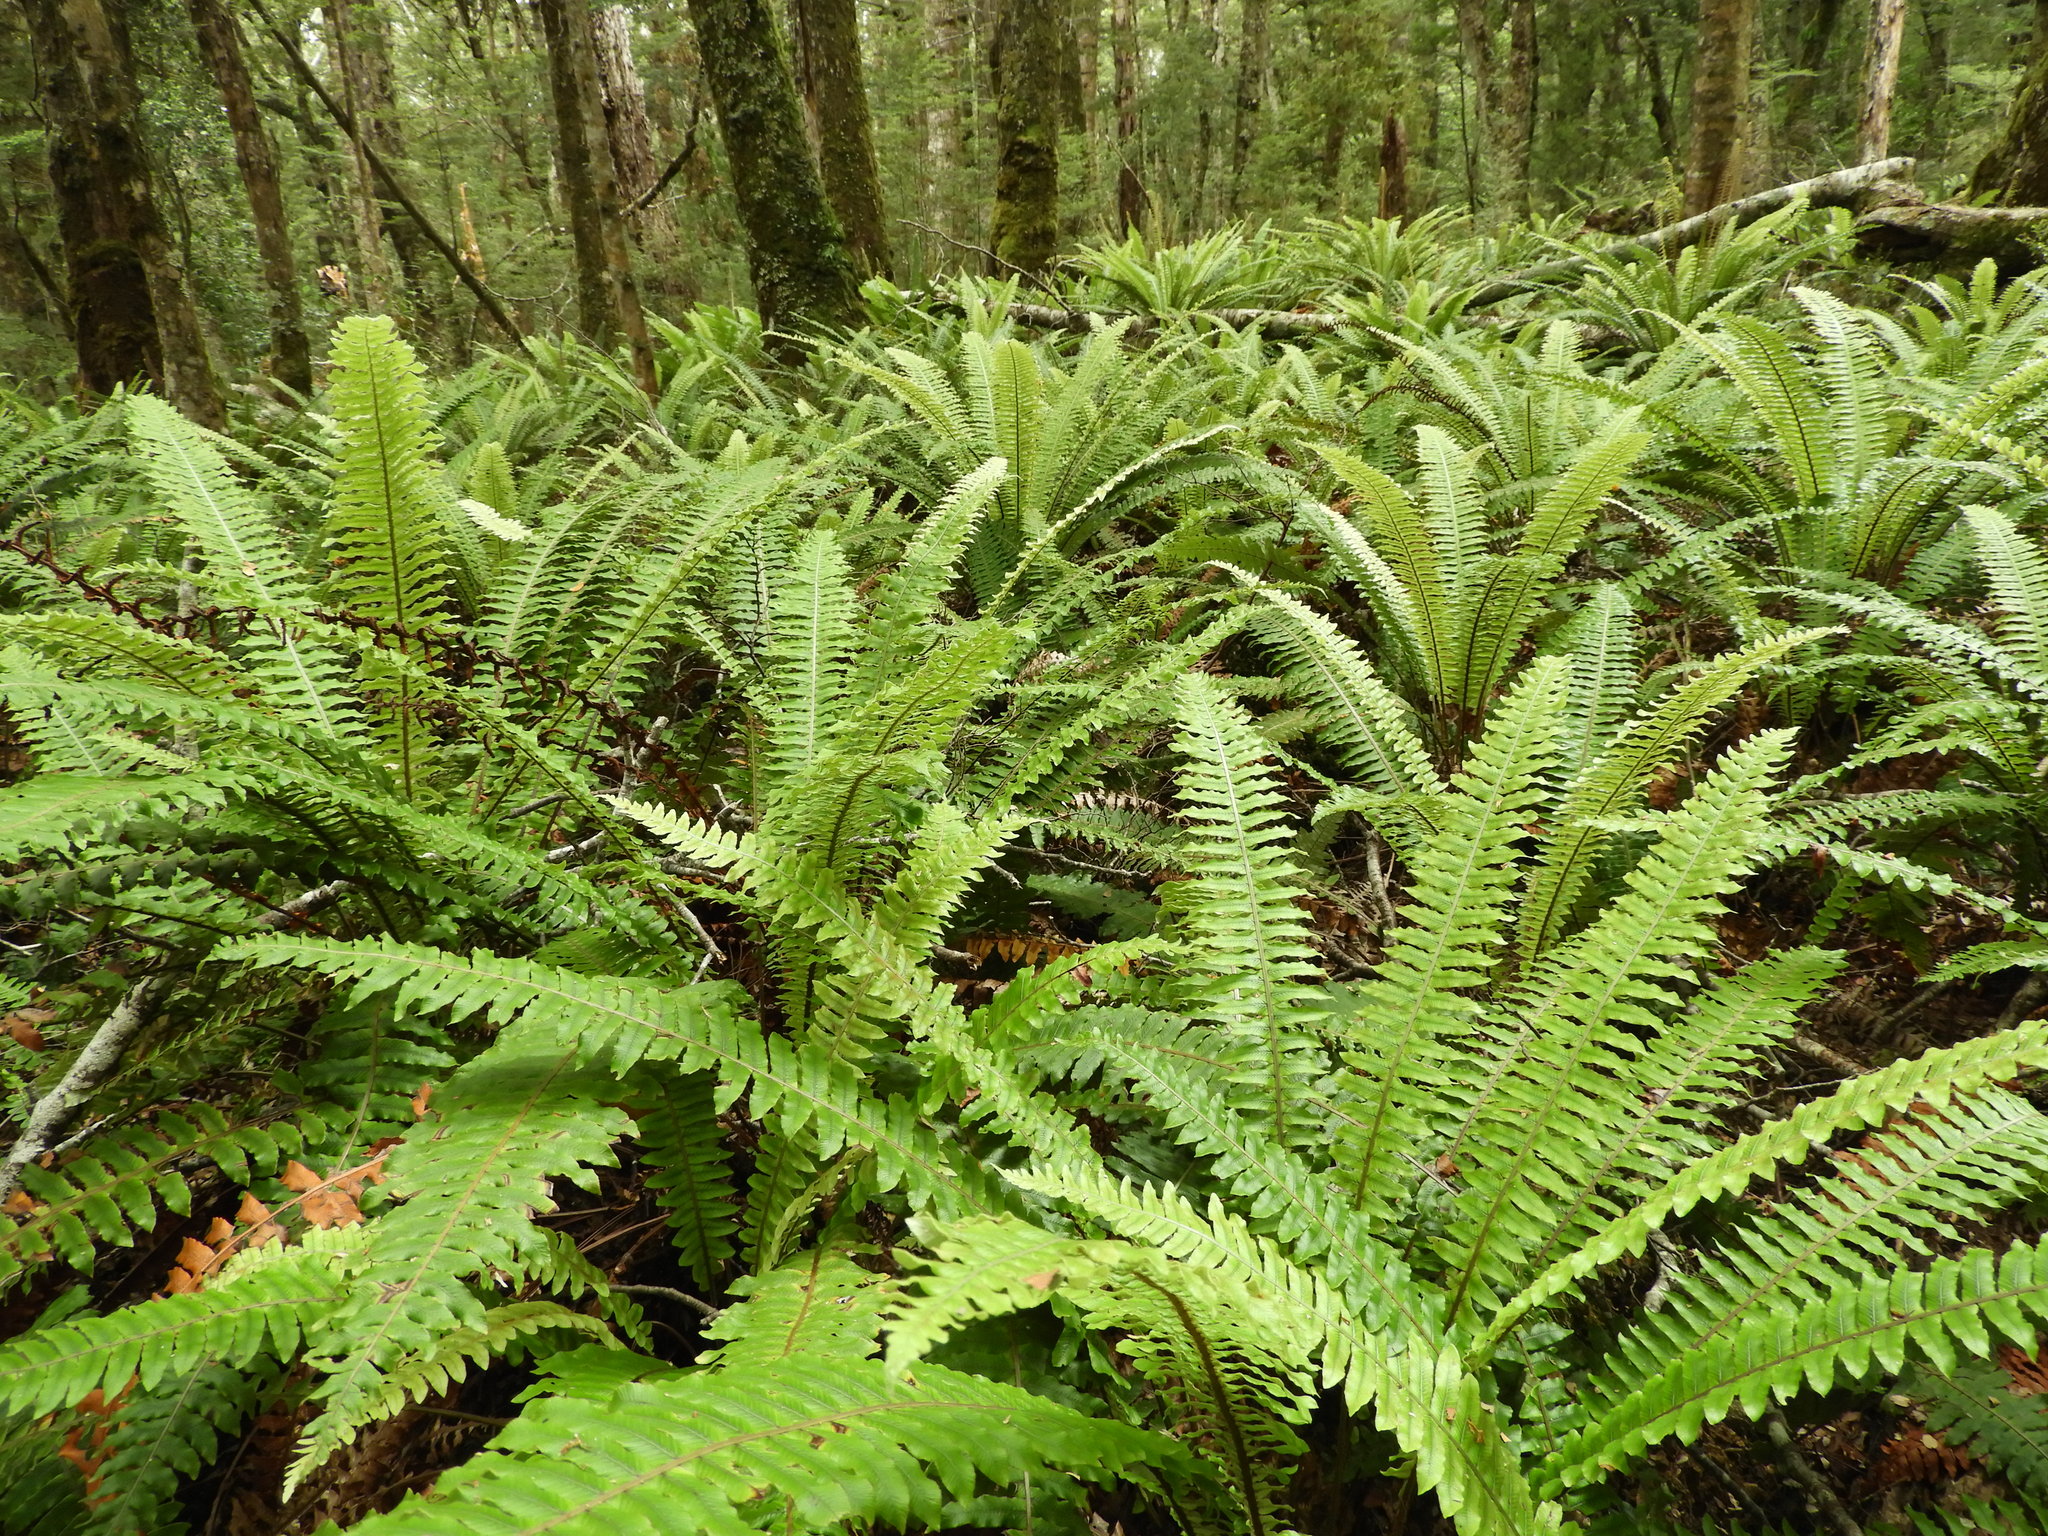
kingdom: Plantae
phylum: Tracheophyta
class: Polypodiopsida
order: Polypodiales
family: Blechnaceae
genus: Lomaria
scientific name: Lomaria discolor
